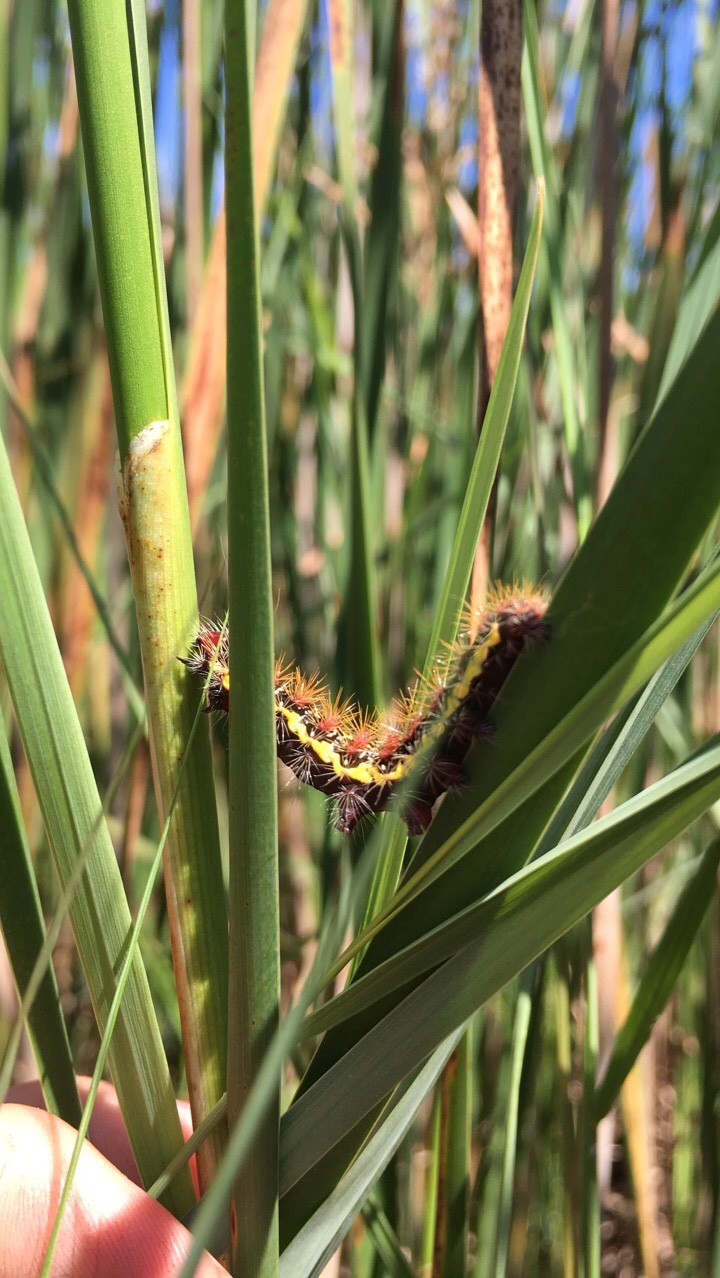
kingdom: Animalia
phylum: Arthropoda
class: Insecta
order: Lepidoptera
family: Noctuidae
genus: Acronicta
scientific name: Acronicta oblinita
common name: Smeared dagger
